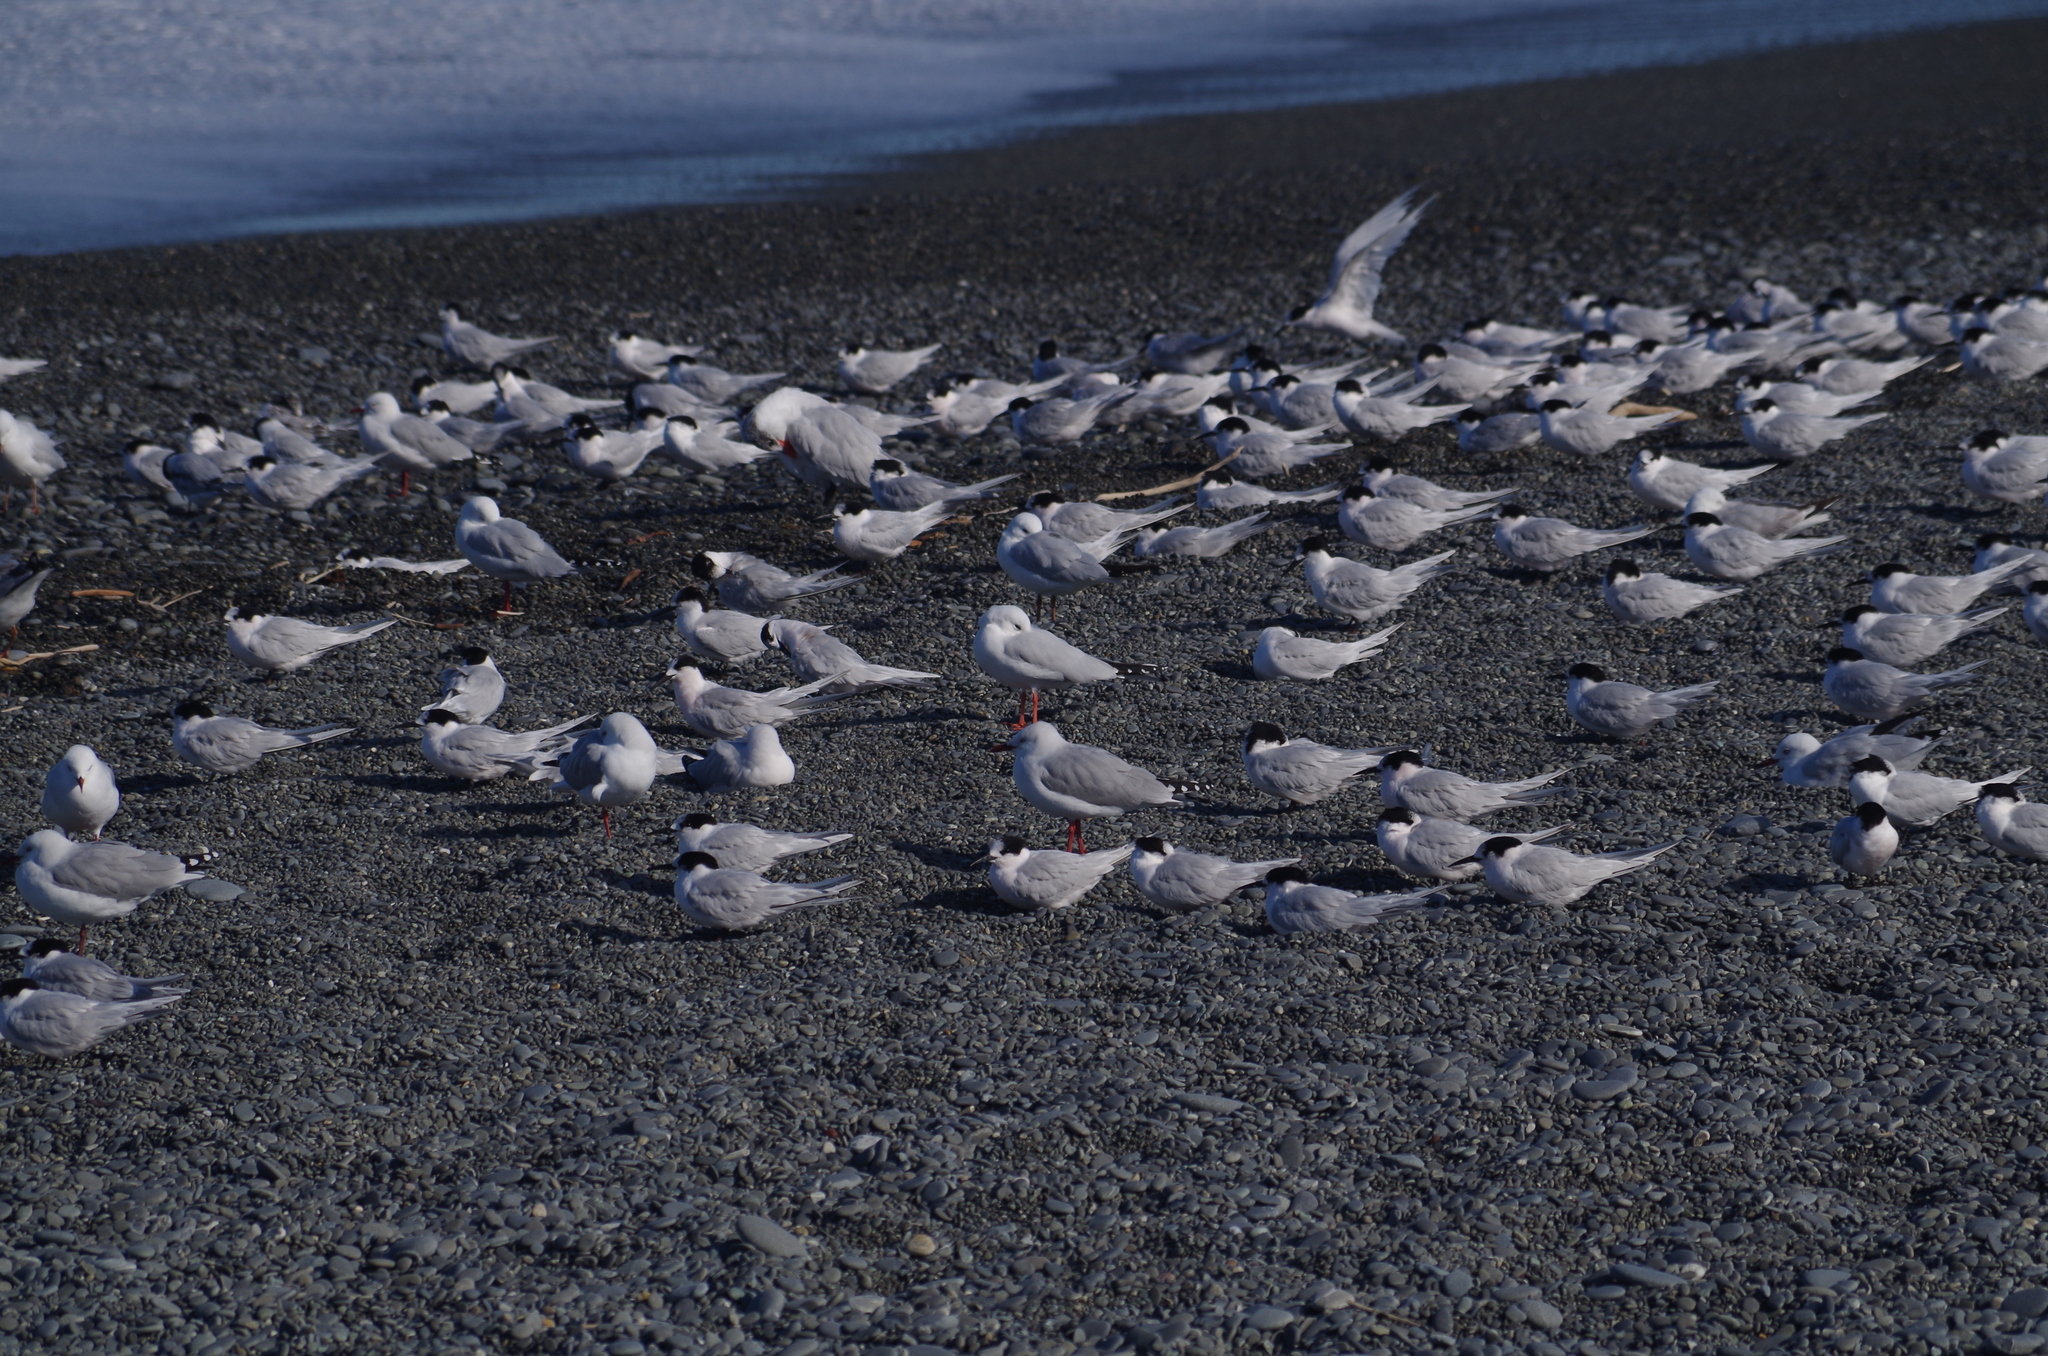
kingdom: Animalia
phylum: Chordata
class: Aves
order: Charadriiformes
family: Laridae
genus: Chroicocephalus
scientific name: Chroicocephalus novaehollandiae
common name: Silver gull
